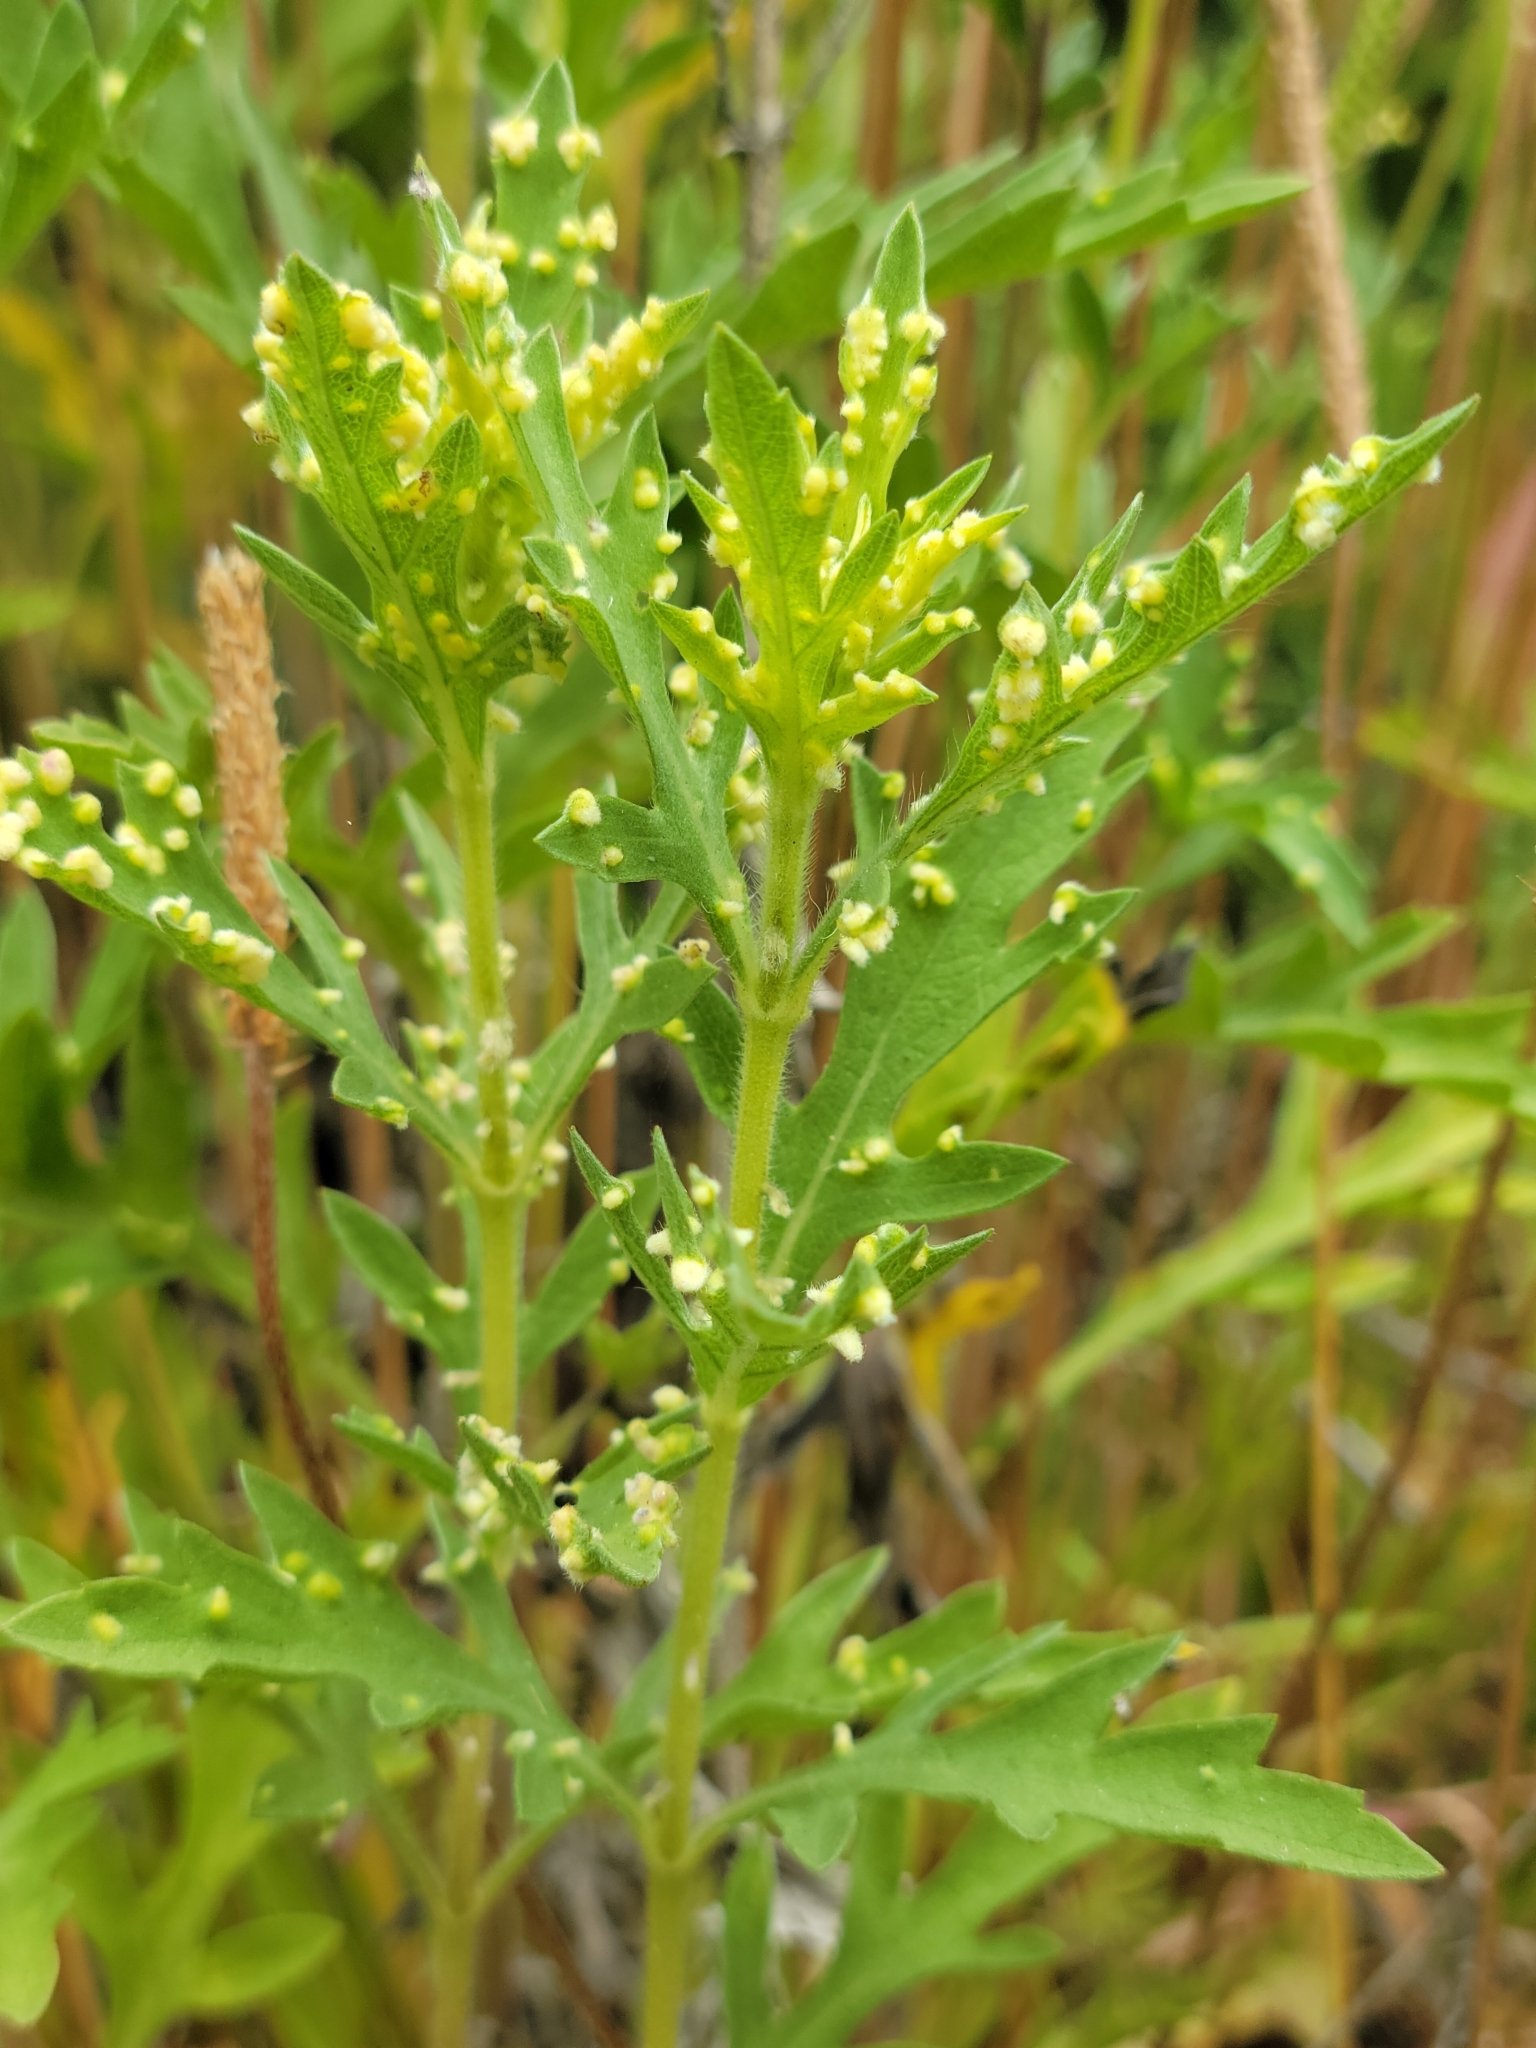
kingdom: Animalia
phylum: Arthropoda
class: Arachnida
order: Trombidiformes
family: Eriophyidae
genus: Aceria
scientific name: Aceria
